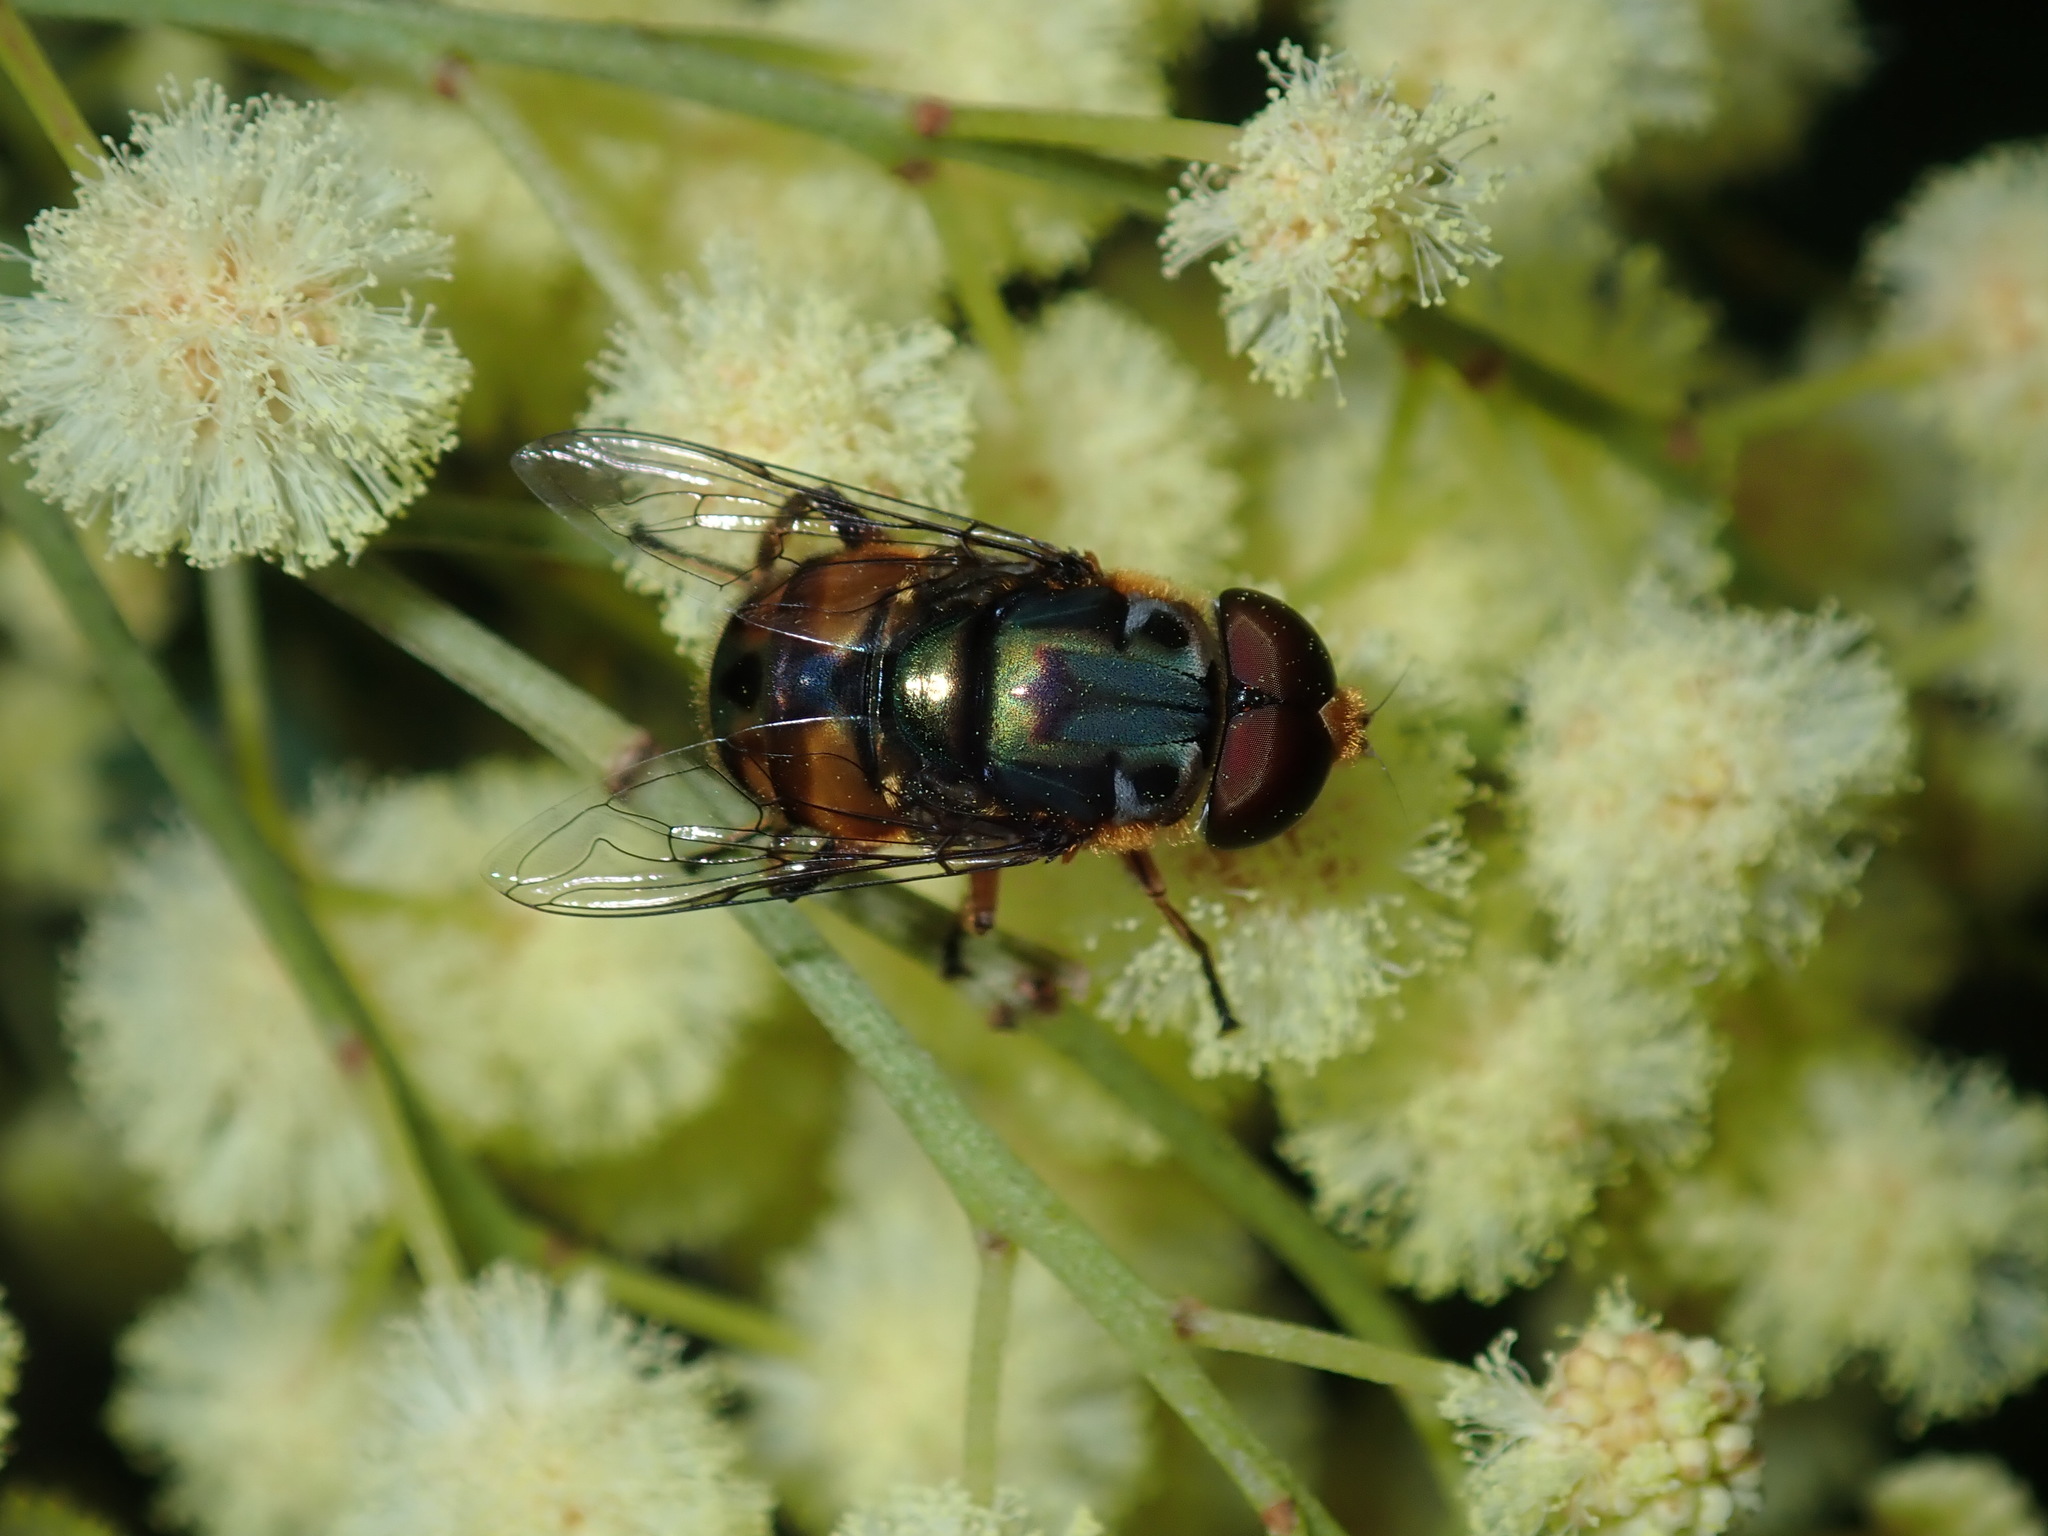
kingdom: Animalia
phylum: Arthropoda
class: Insecta
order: Diptera
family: Syrphidae
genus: Austalis
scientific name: Austalis copiosa
